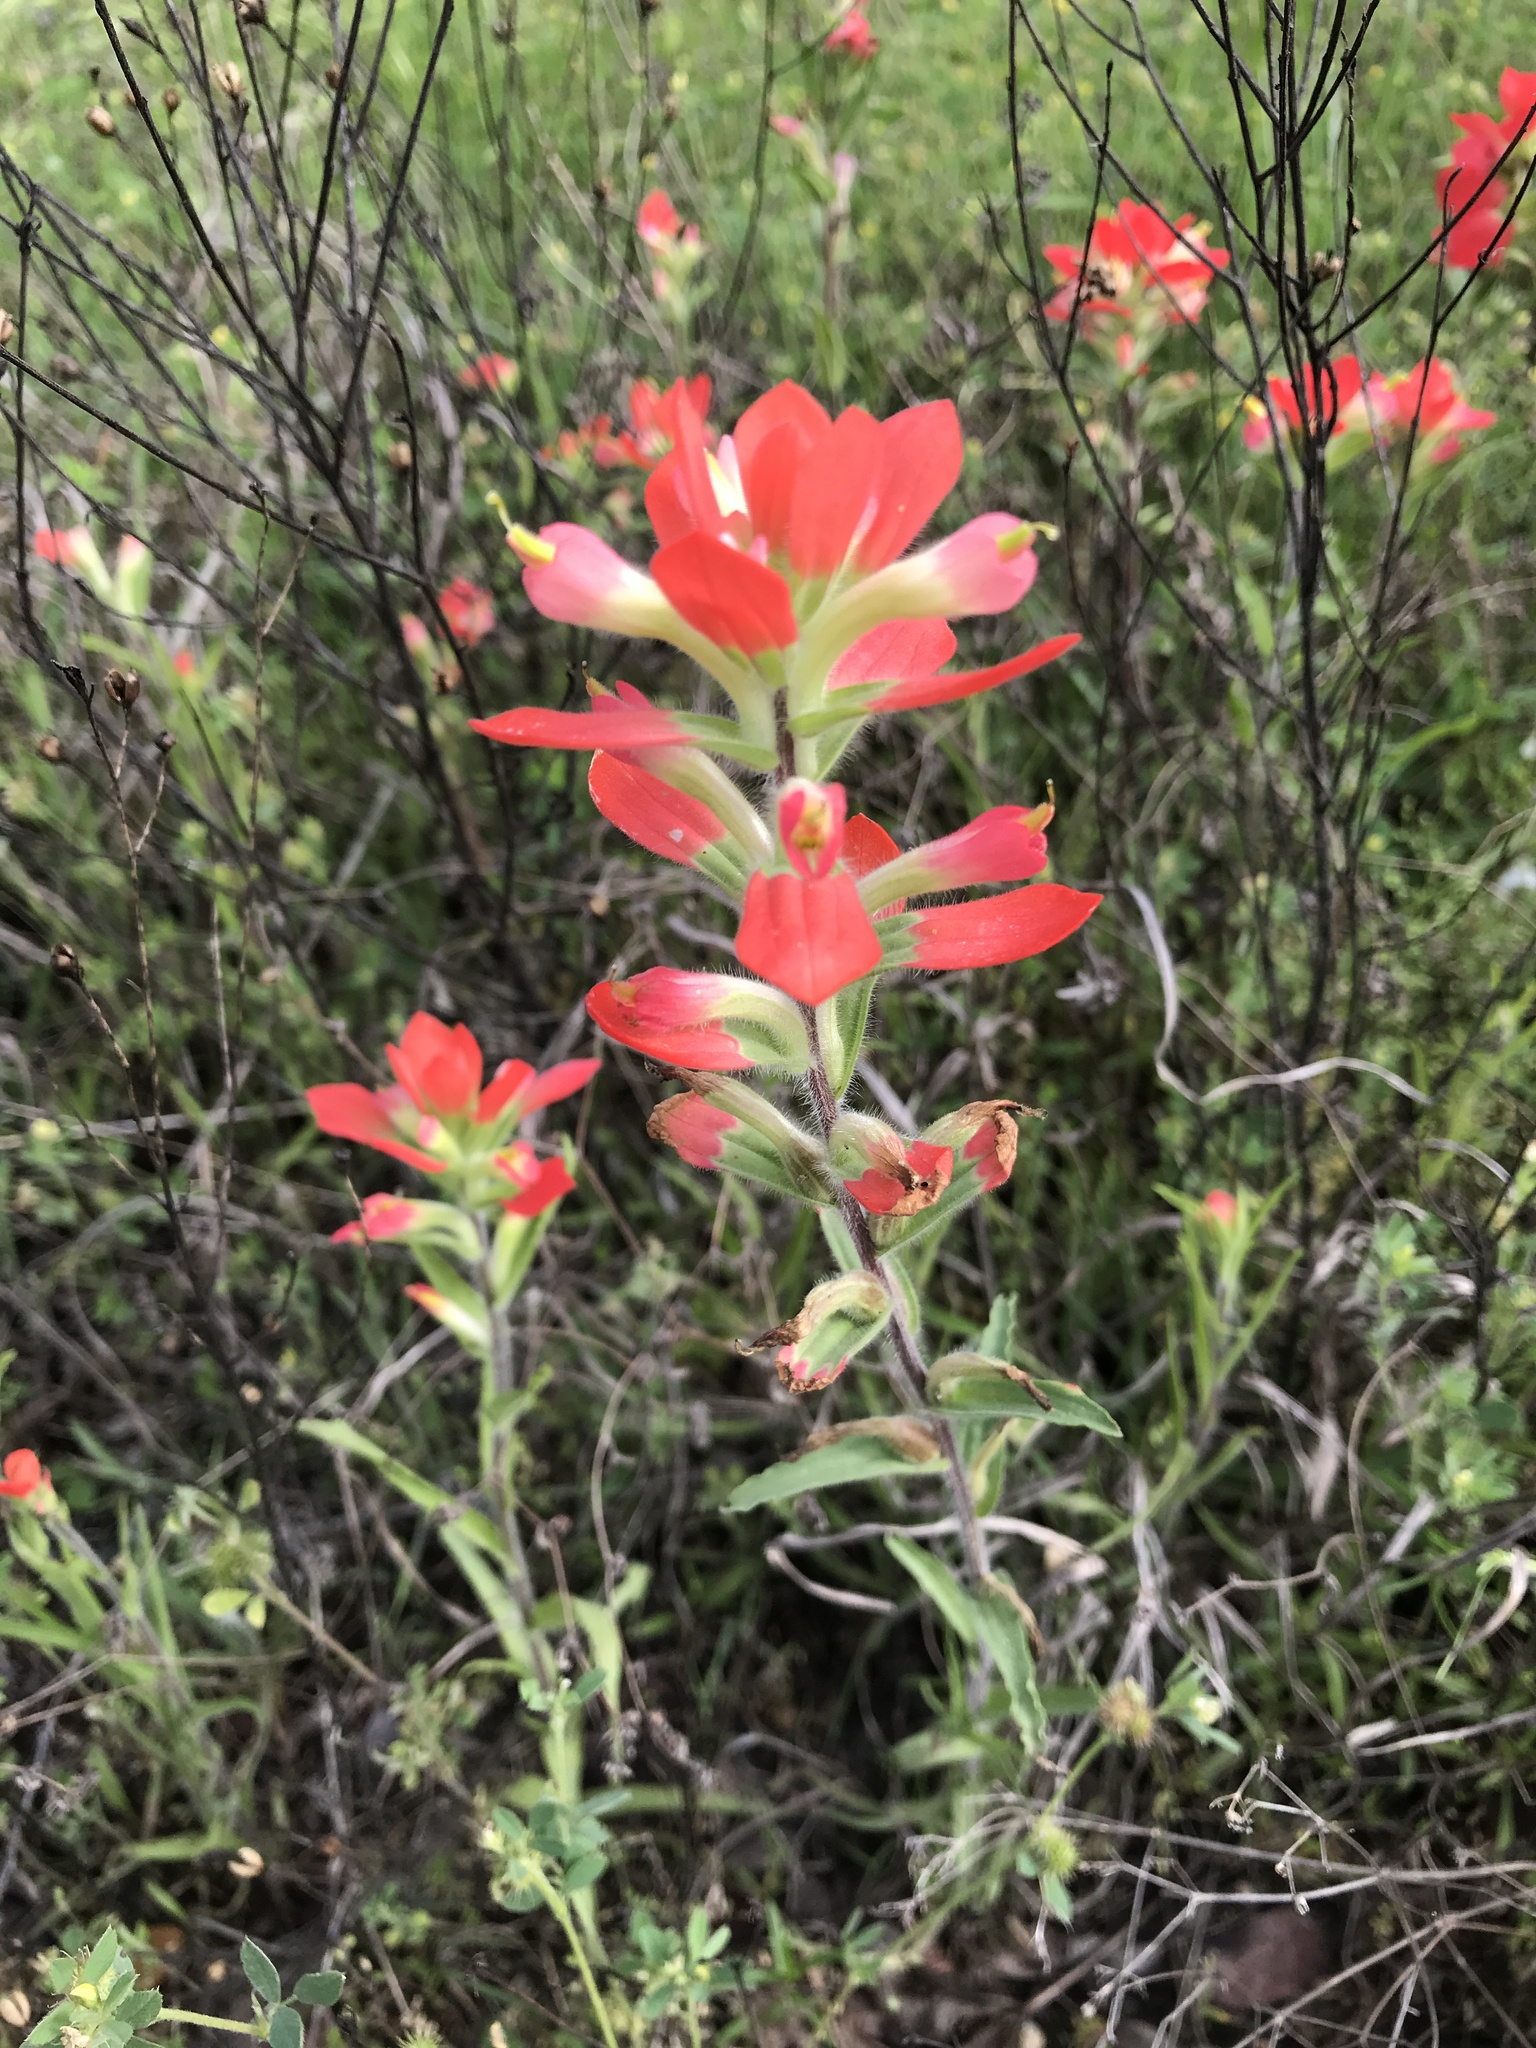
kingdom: Plantae
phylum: Tracheophyta
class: Magnoliopsida
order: Lamiales
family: Orobanchaceae
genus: Castilleja
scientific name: Castilleja indivisa
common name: Texas paintbrush
